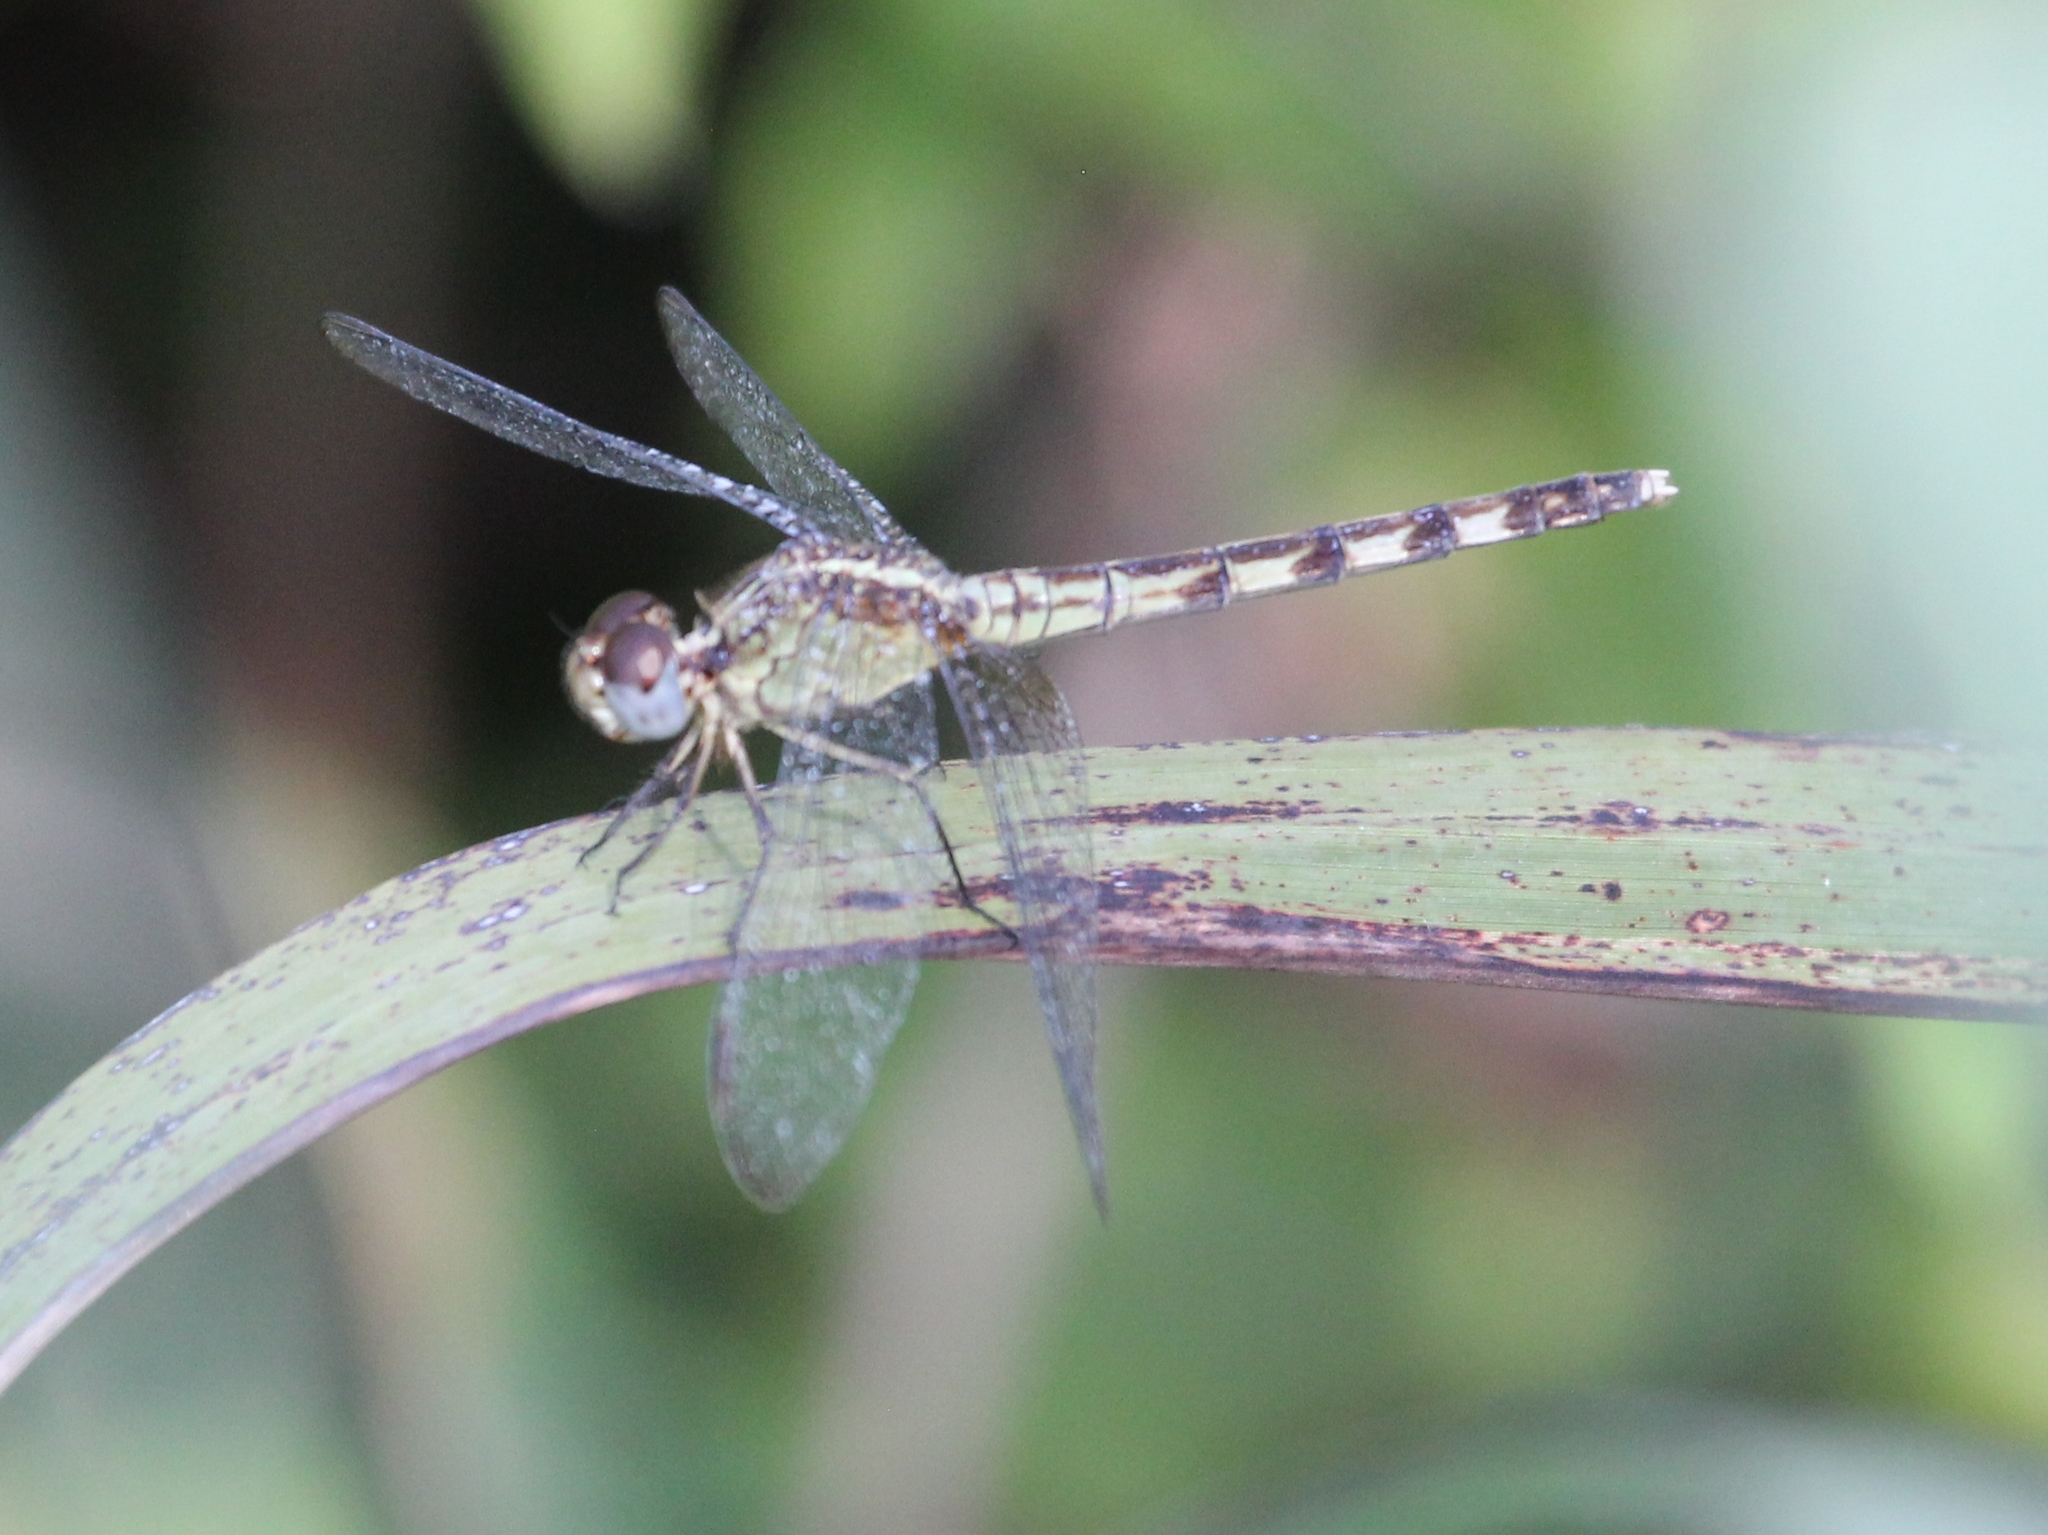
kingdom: Animalia
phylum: Arthropoda
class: Insecta
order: Odonata
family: Libellulidae
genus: Erythrodiplax
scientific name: Erythrodiplax umbrata
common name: Band-winged dragonlet
